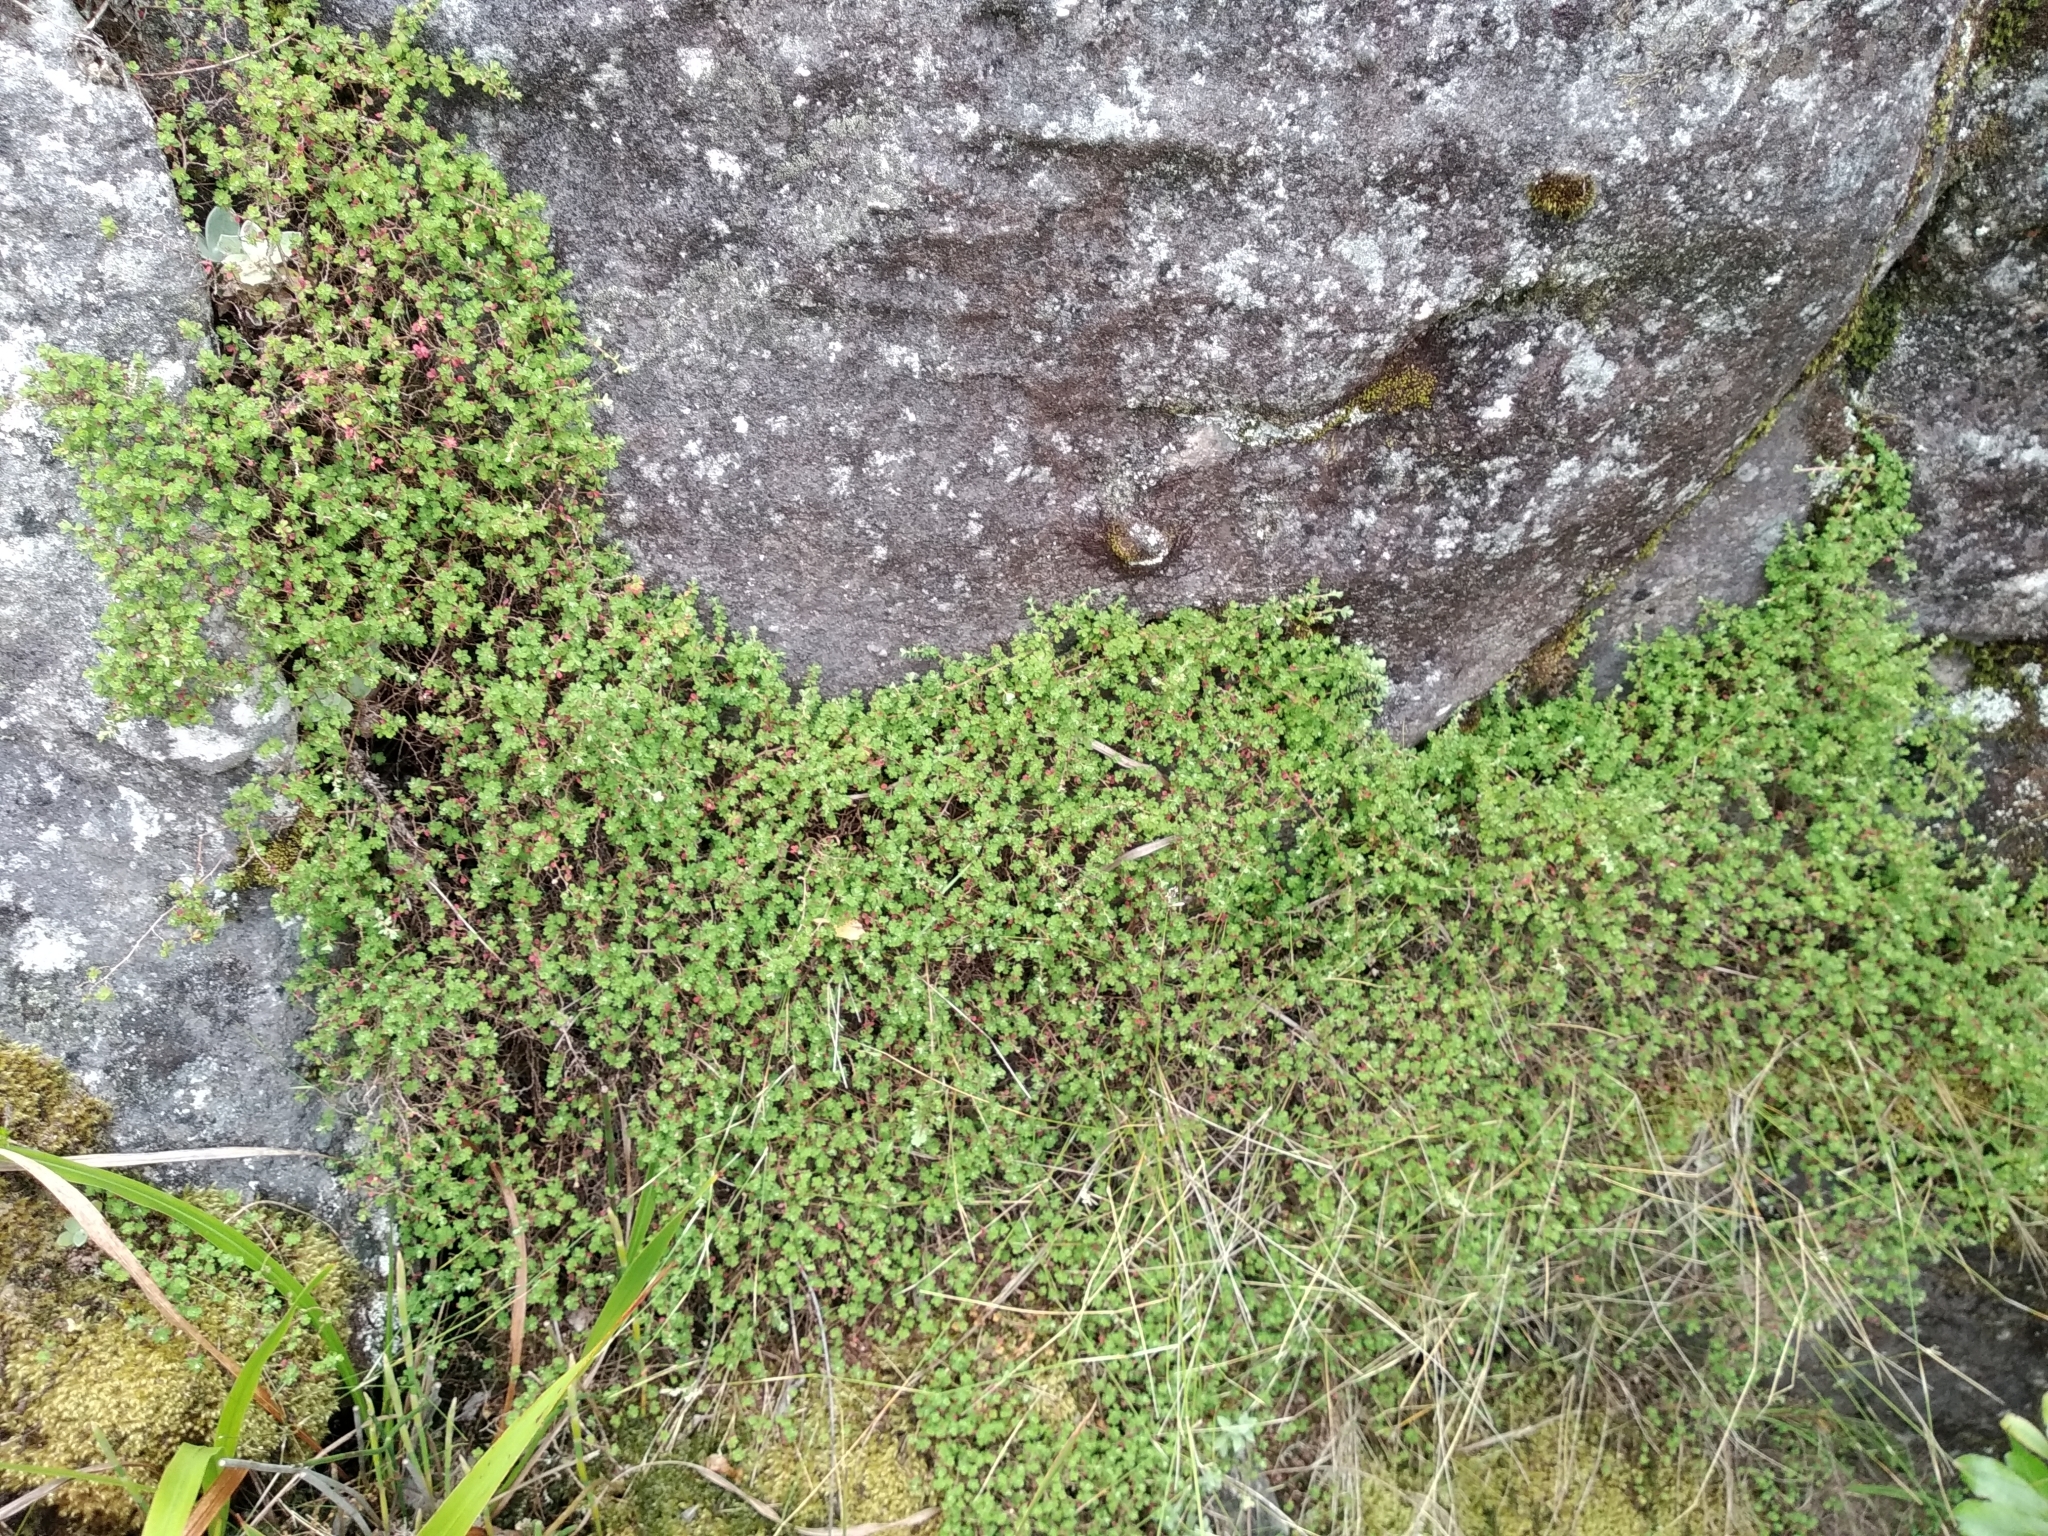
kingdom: Plantae
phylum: Tracheophyta
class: Magnoliopsida
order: Rosales
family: Rosaceae
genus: Cliffortia
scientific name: Cliffortia dentata
